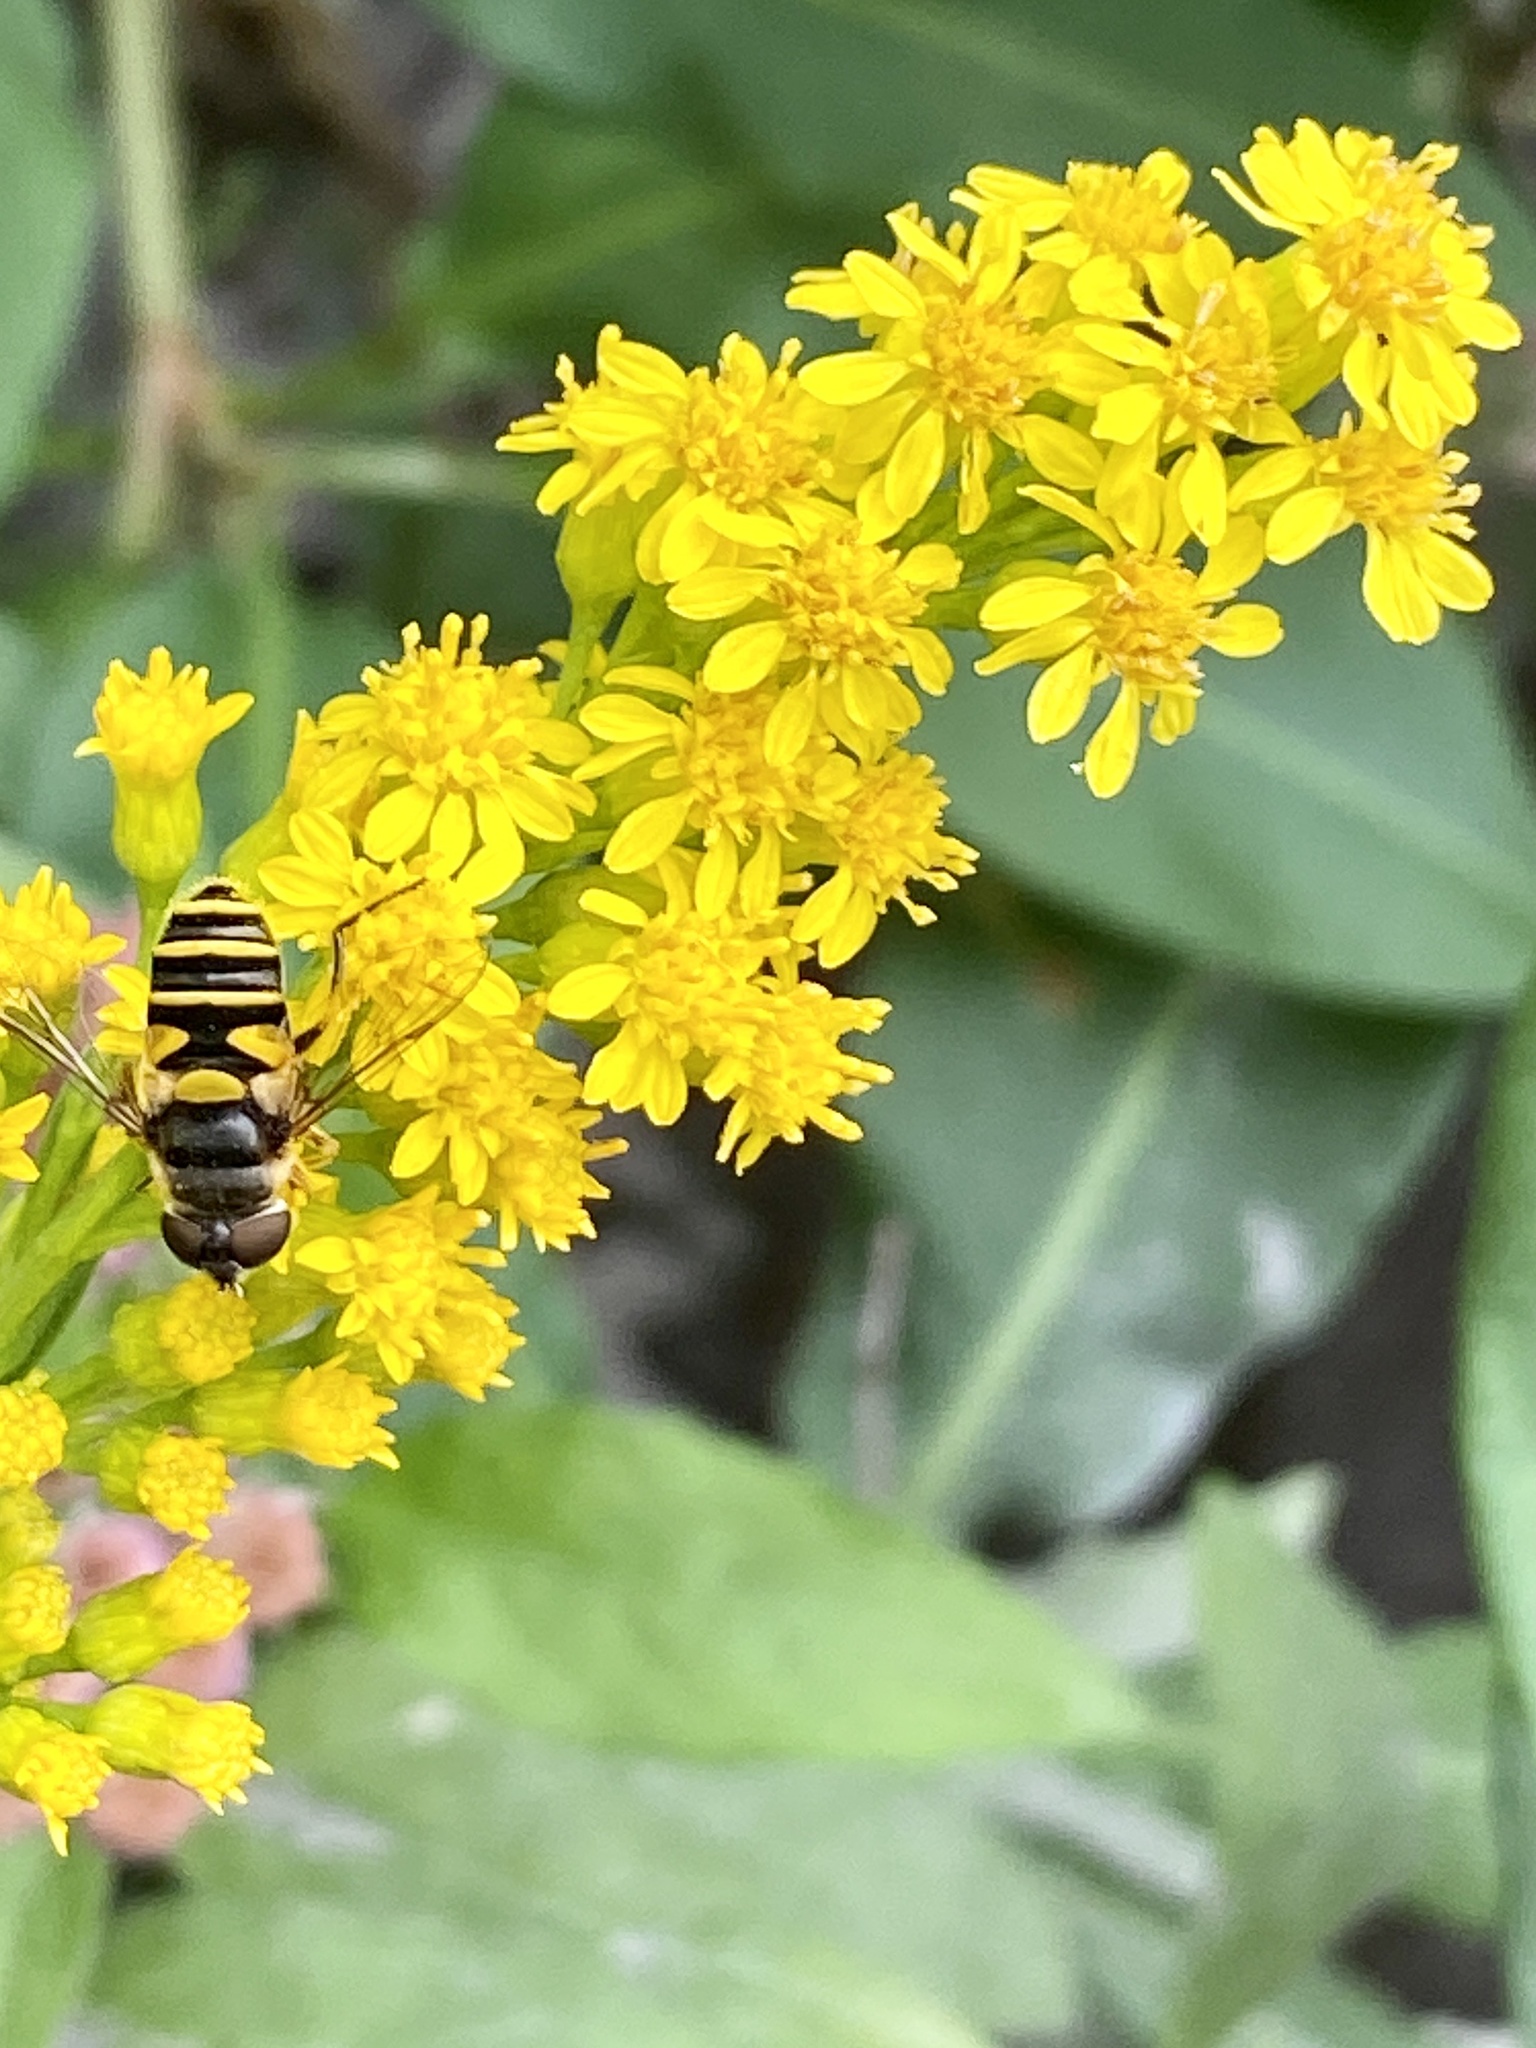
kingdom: Animalia
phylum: Arthropoda
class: Insecta
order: Diptera
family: Syrphidae
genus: Eristalis
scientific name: Eristalis transversa
